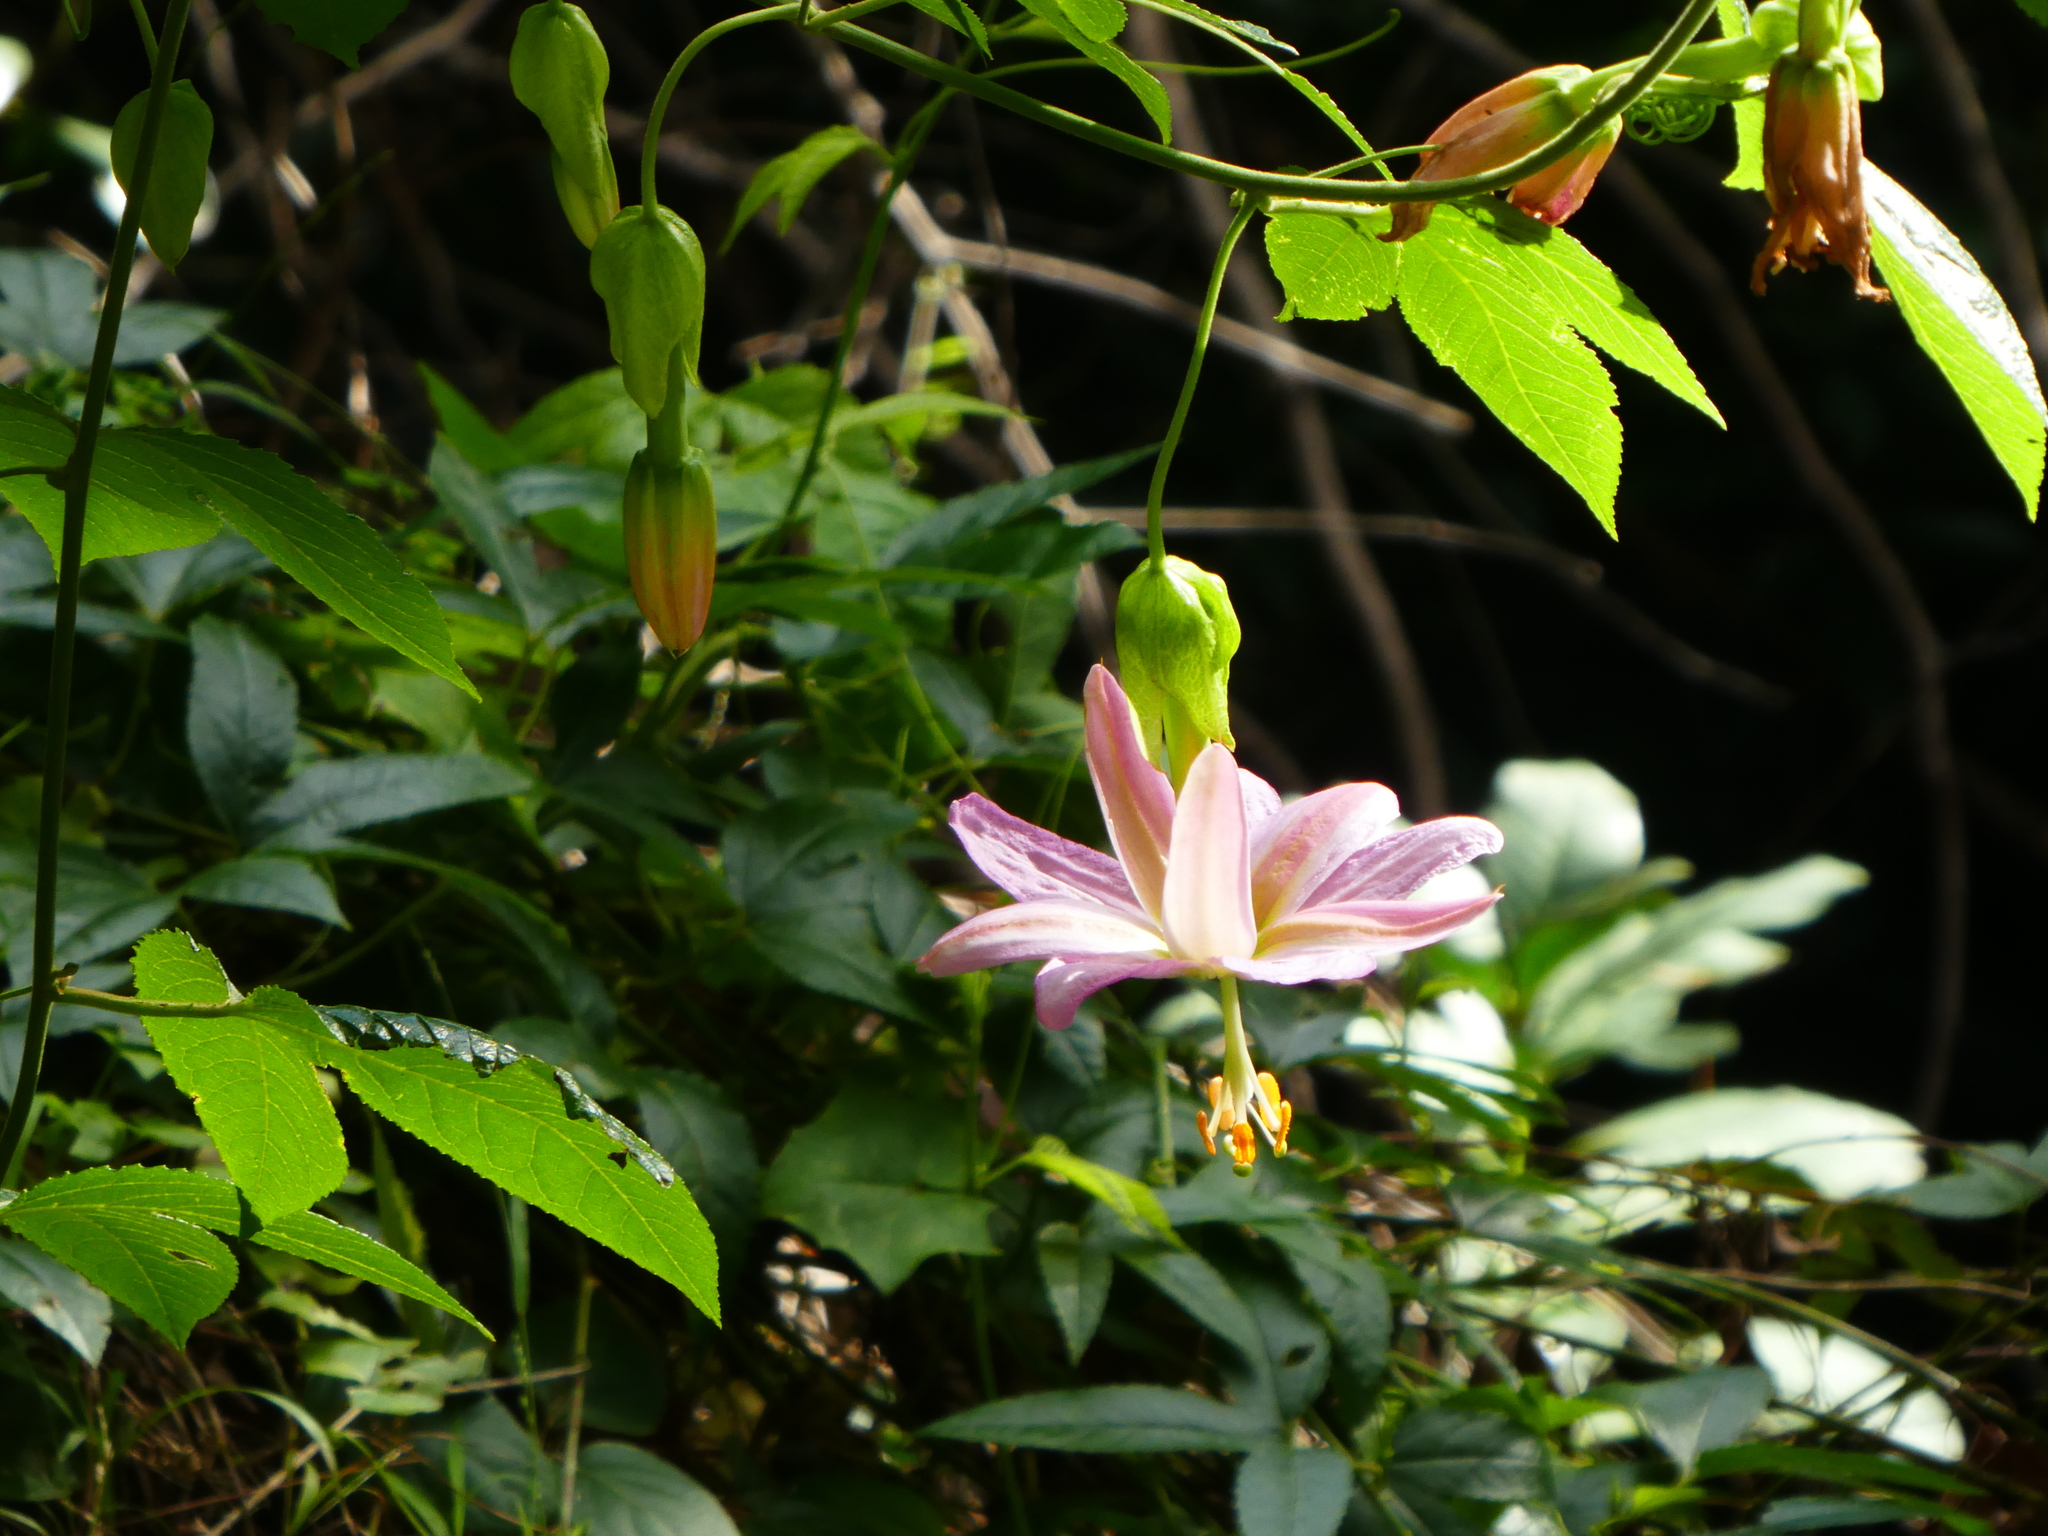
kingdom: Plantae
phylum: Tracheophyta
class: Magnoliopsida
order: Malpighiales
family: Passifloraceae
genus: Passiflora
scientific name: Passiflora tarminiana
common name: Banana poka
